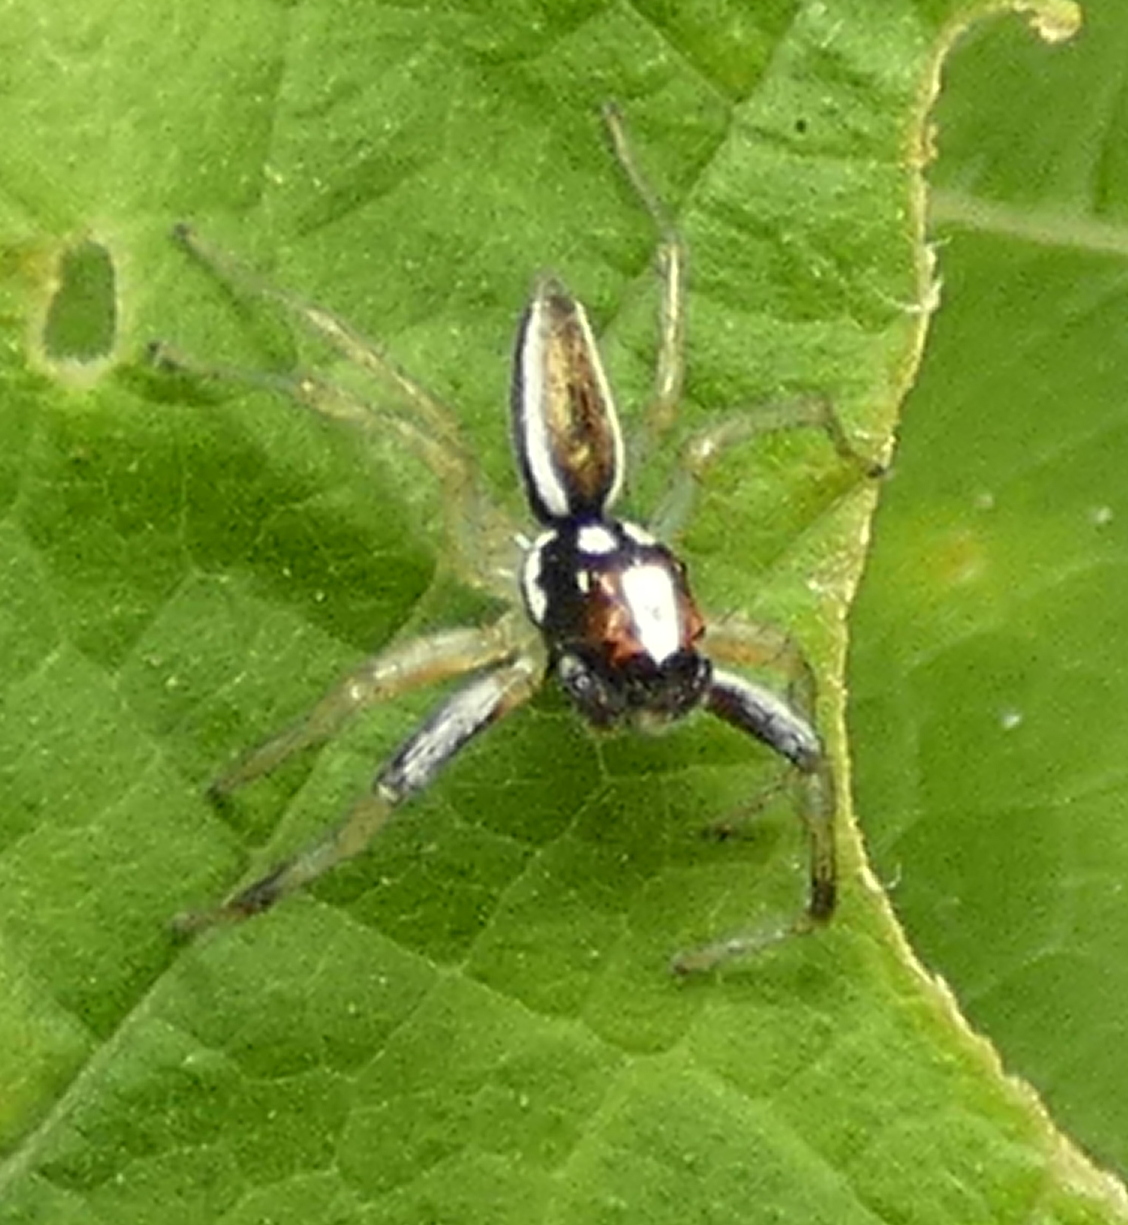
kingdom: Animalia
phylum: Arthropoda
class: Arachnida
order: Araneae
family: Salticidae
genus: Chira
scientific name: Chira spinosa
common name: Jumping spiders
